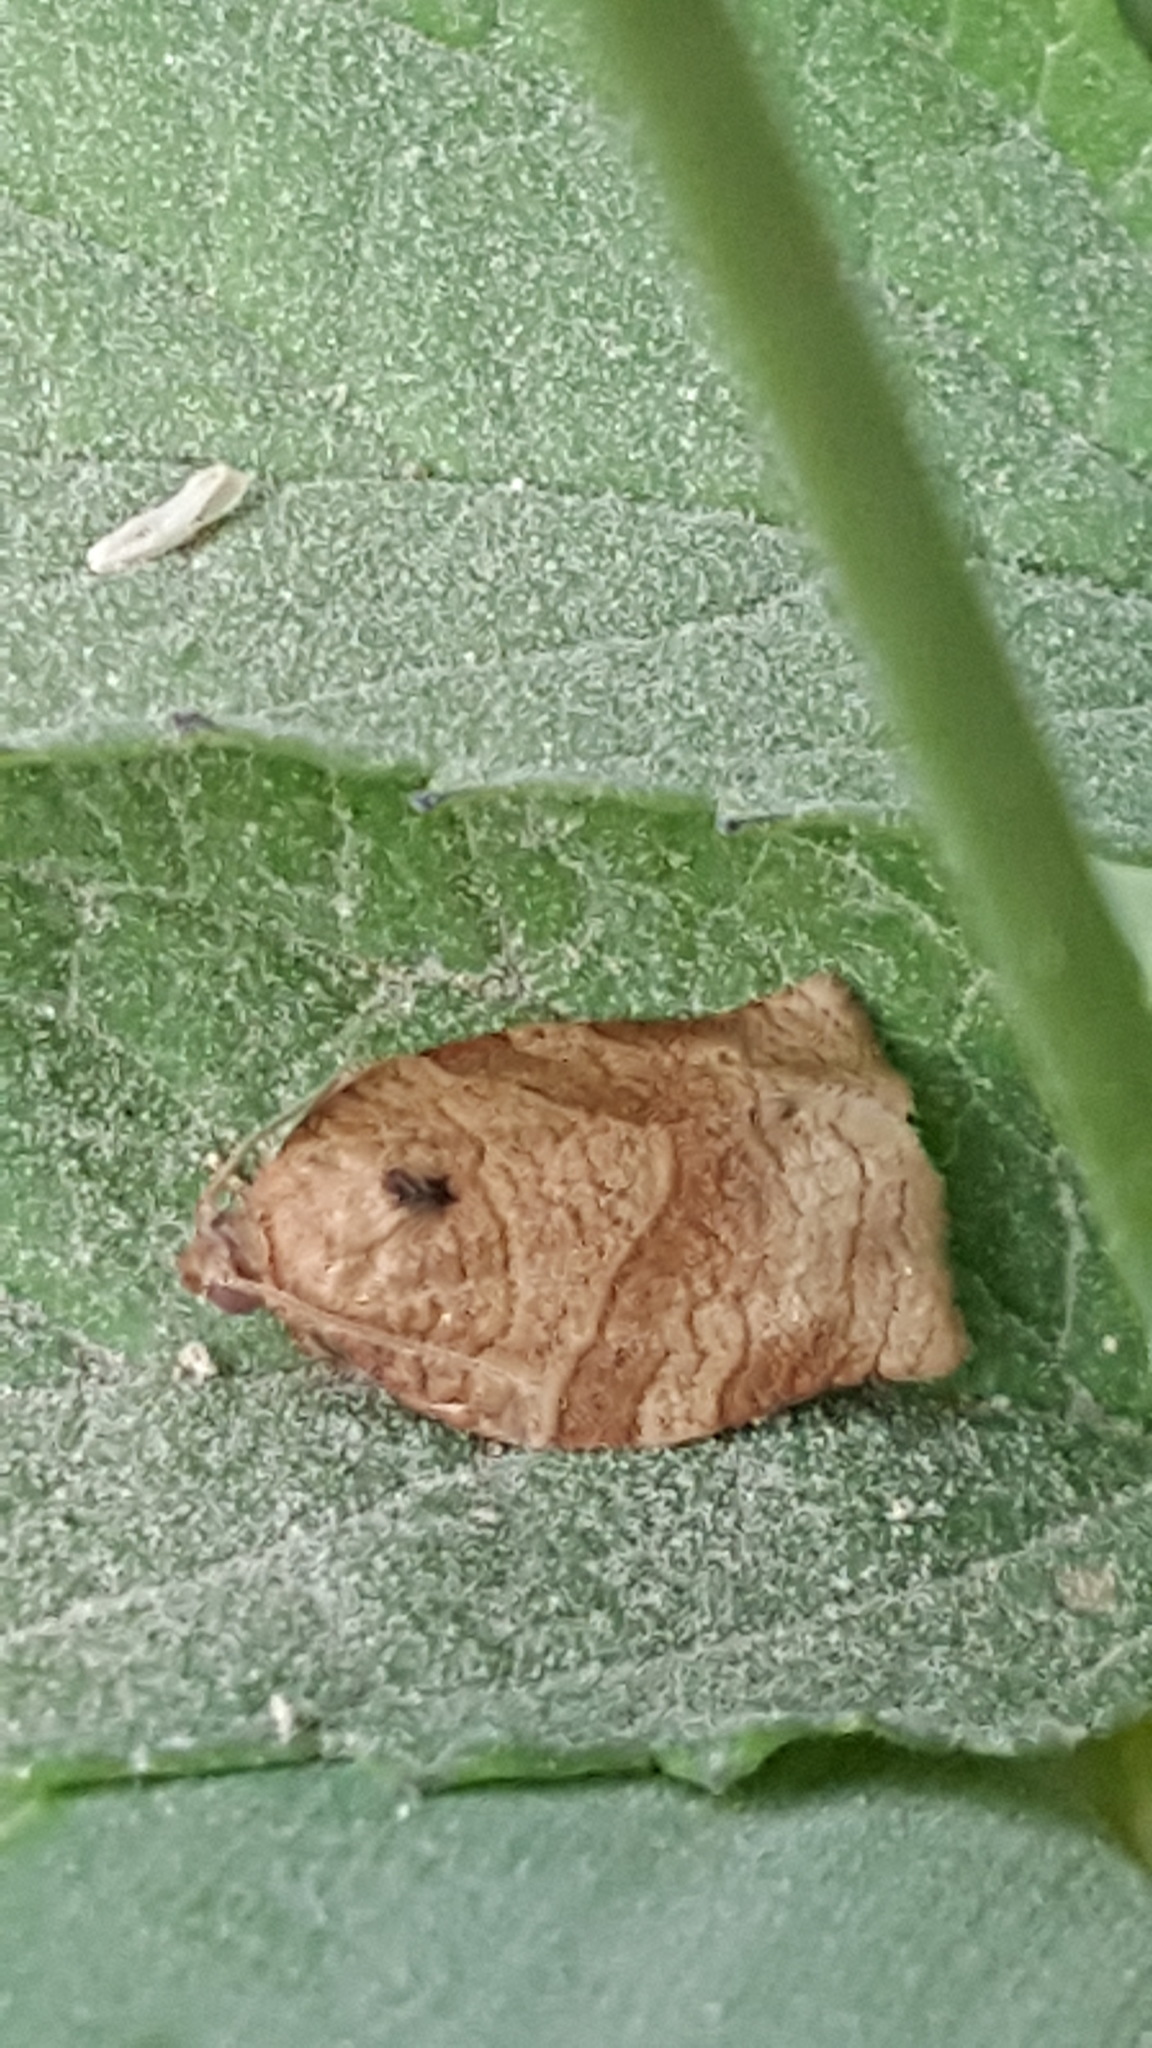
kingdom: Animalia
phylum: Arthropoda
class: Insecta
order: Lepidoptera
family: Tortricidae
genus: Choristoneura
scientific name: Choristoneura rosaceana
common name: Oblique-banded leafroller moth
